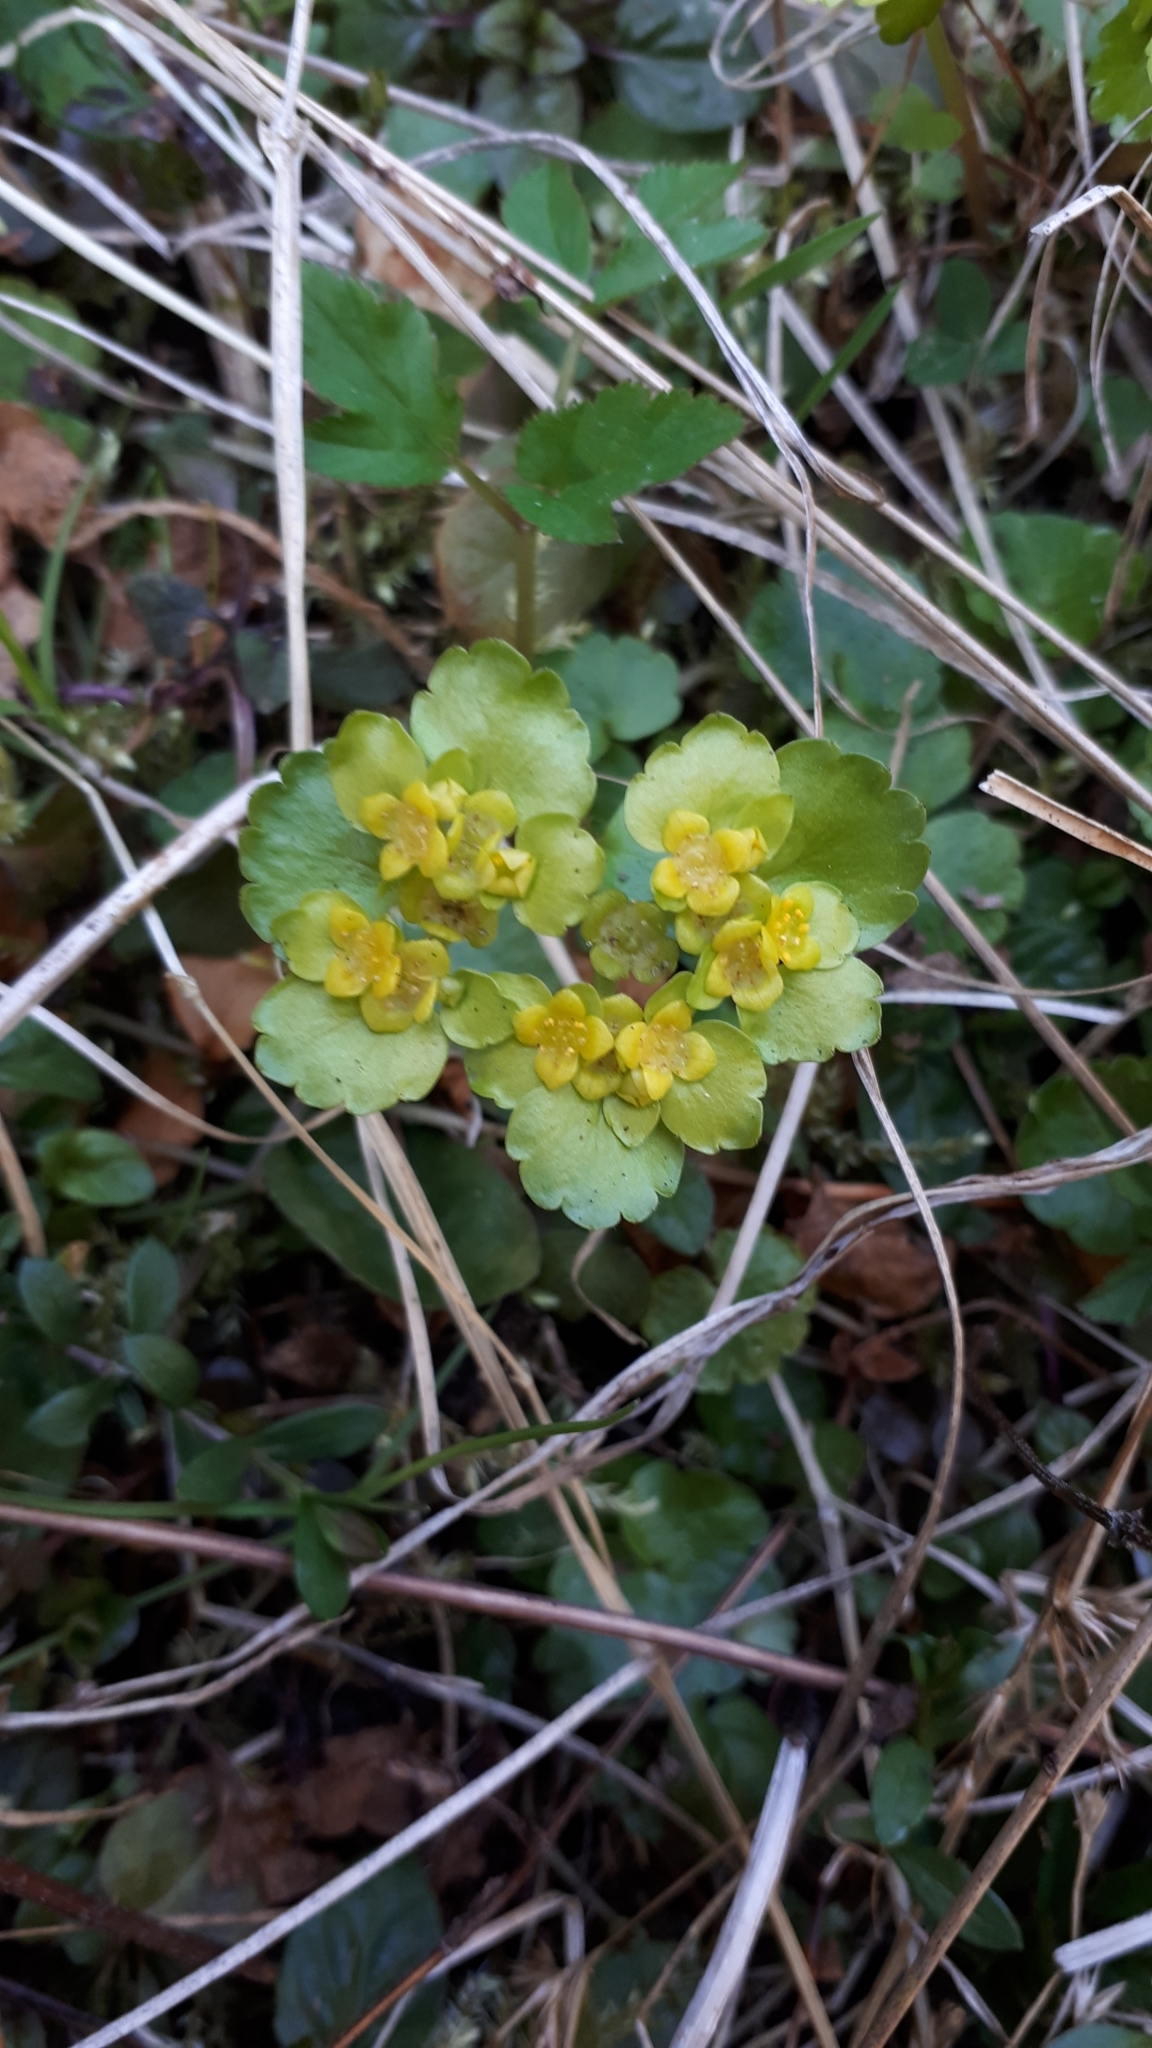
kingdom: Plantae
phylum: Tracheophyta
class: Magnoliopsida
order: Saxifragales
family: Saxifragaceae
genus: Chrysosplenium
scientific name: Chrysosplenium alternifolium
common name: Alternate-leaved golden-saxifrage
